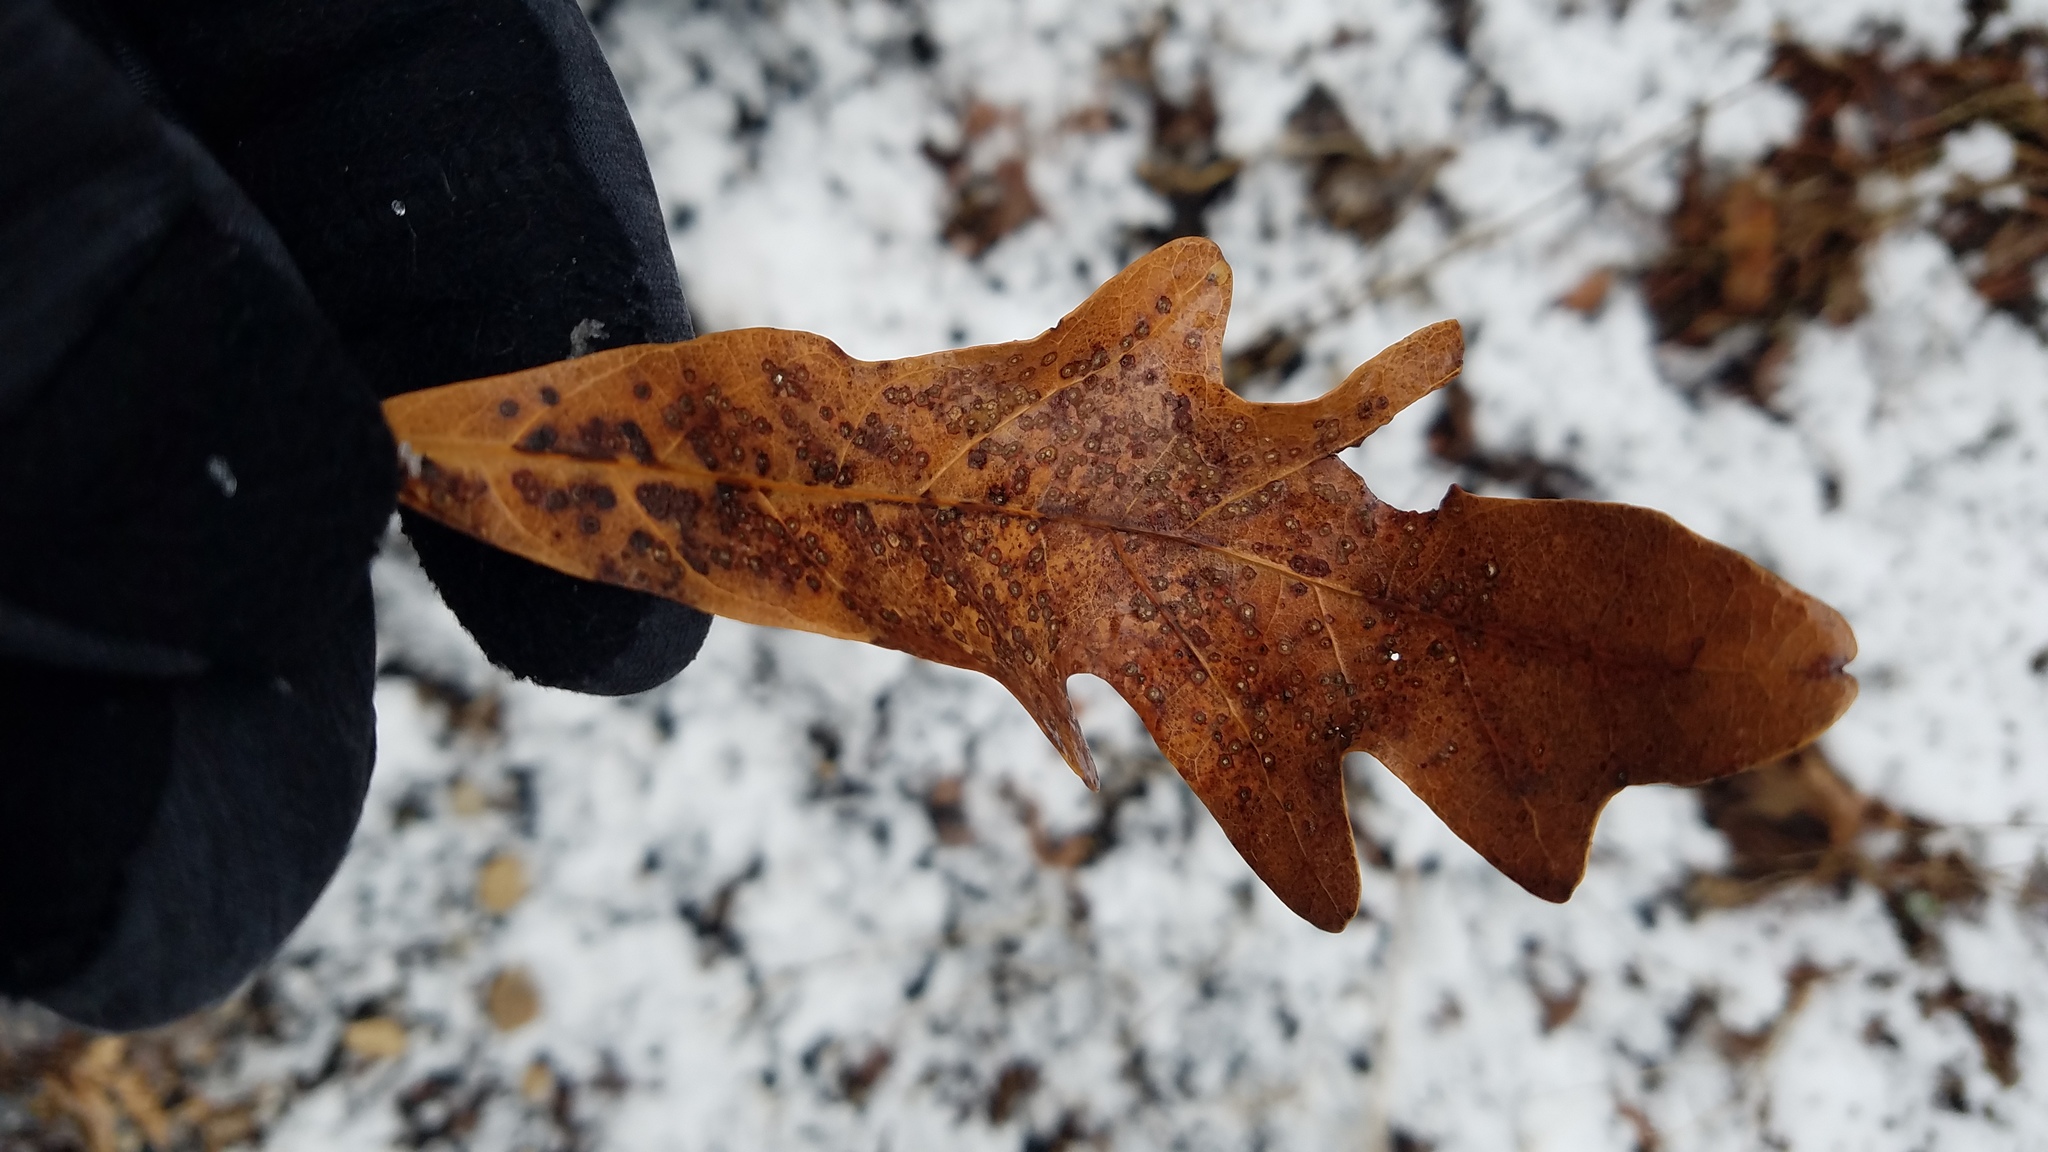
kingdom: Animalia
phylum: Arthropoda
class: Insecta
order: Hymenoptera
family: Cynipidae
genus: Neuroterus
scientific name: Neuroterus
